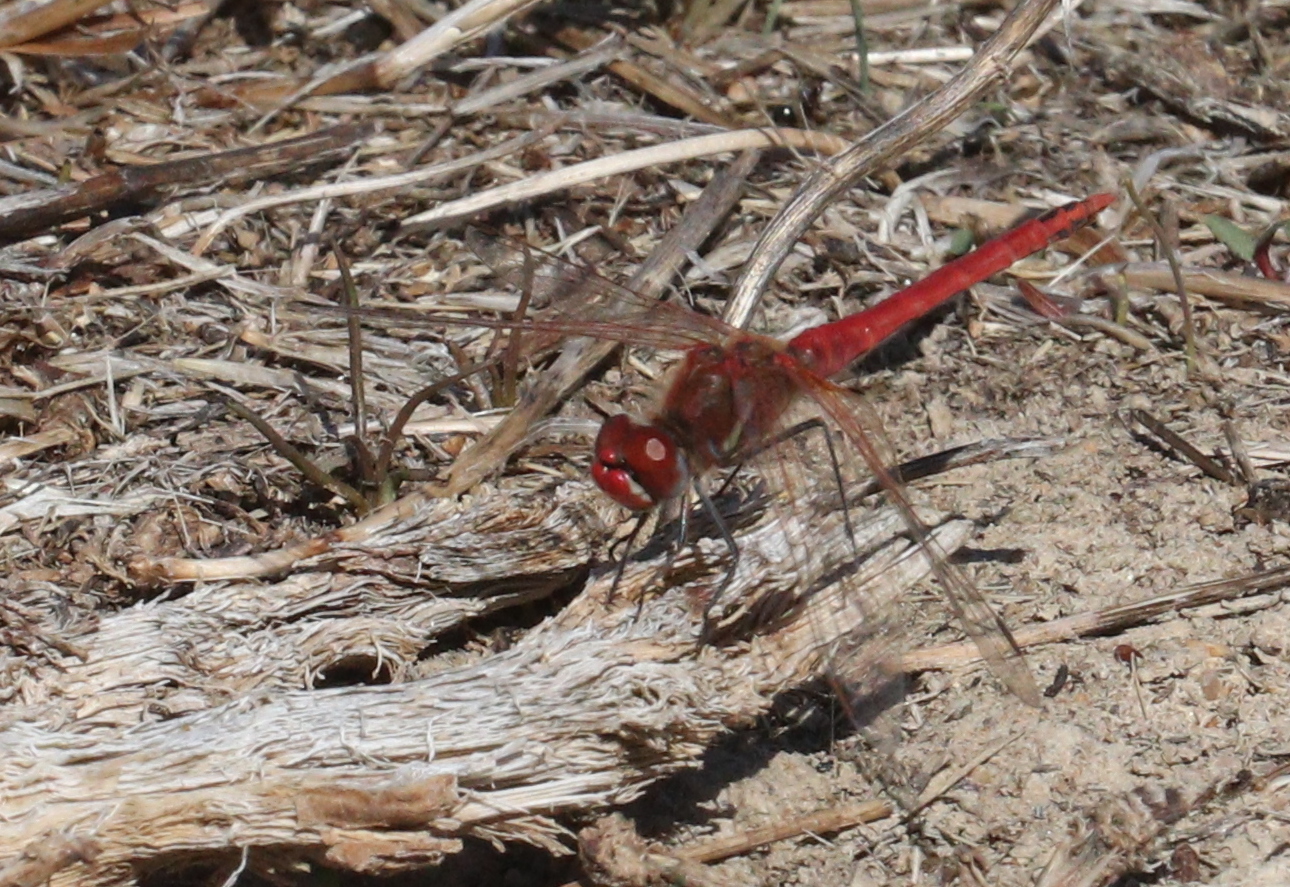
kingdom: Animalia
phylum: Arthropoda
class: Insecta
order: Odonata
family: Libellulidae
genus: Sympetrum
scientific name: Sympetrum fonscolombii
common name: Red-veined darter
